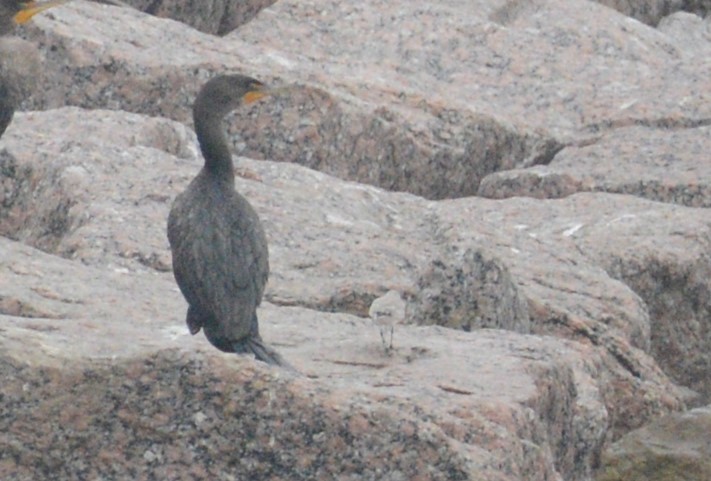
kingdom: Animalia
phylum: Chordata
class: Aves
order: Charadriiformes
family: Scolopacidae
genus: Calidris
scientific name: Calidris alba
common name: Sanderling
